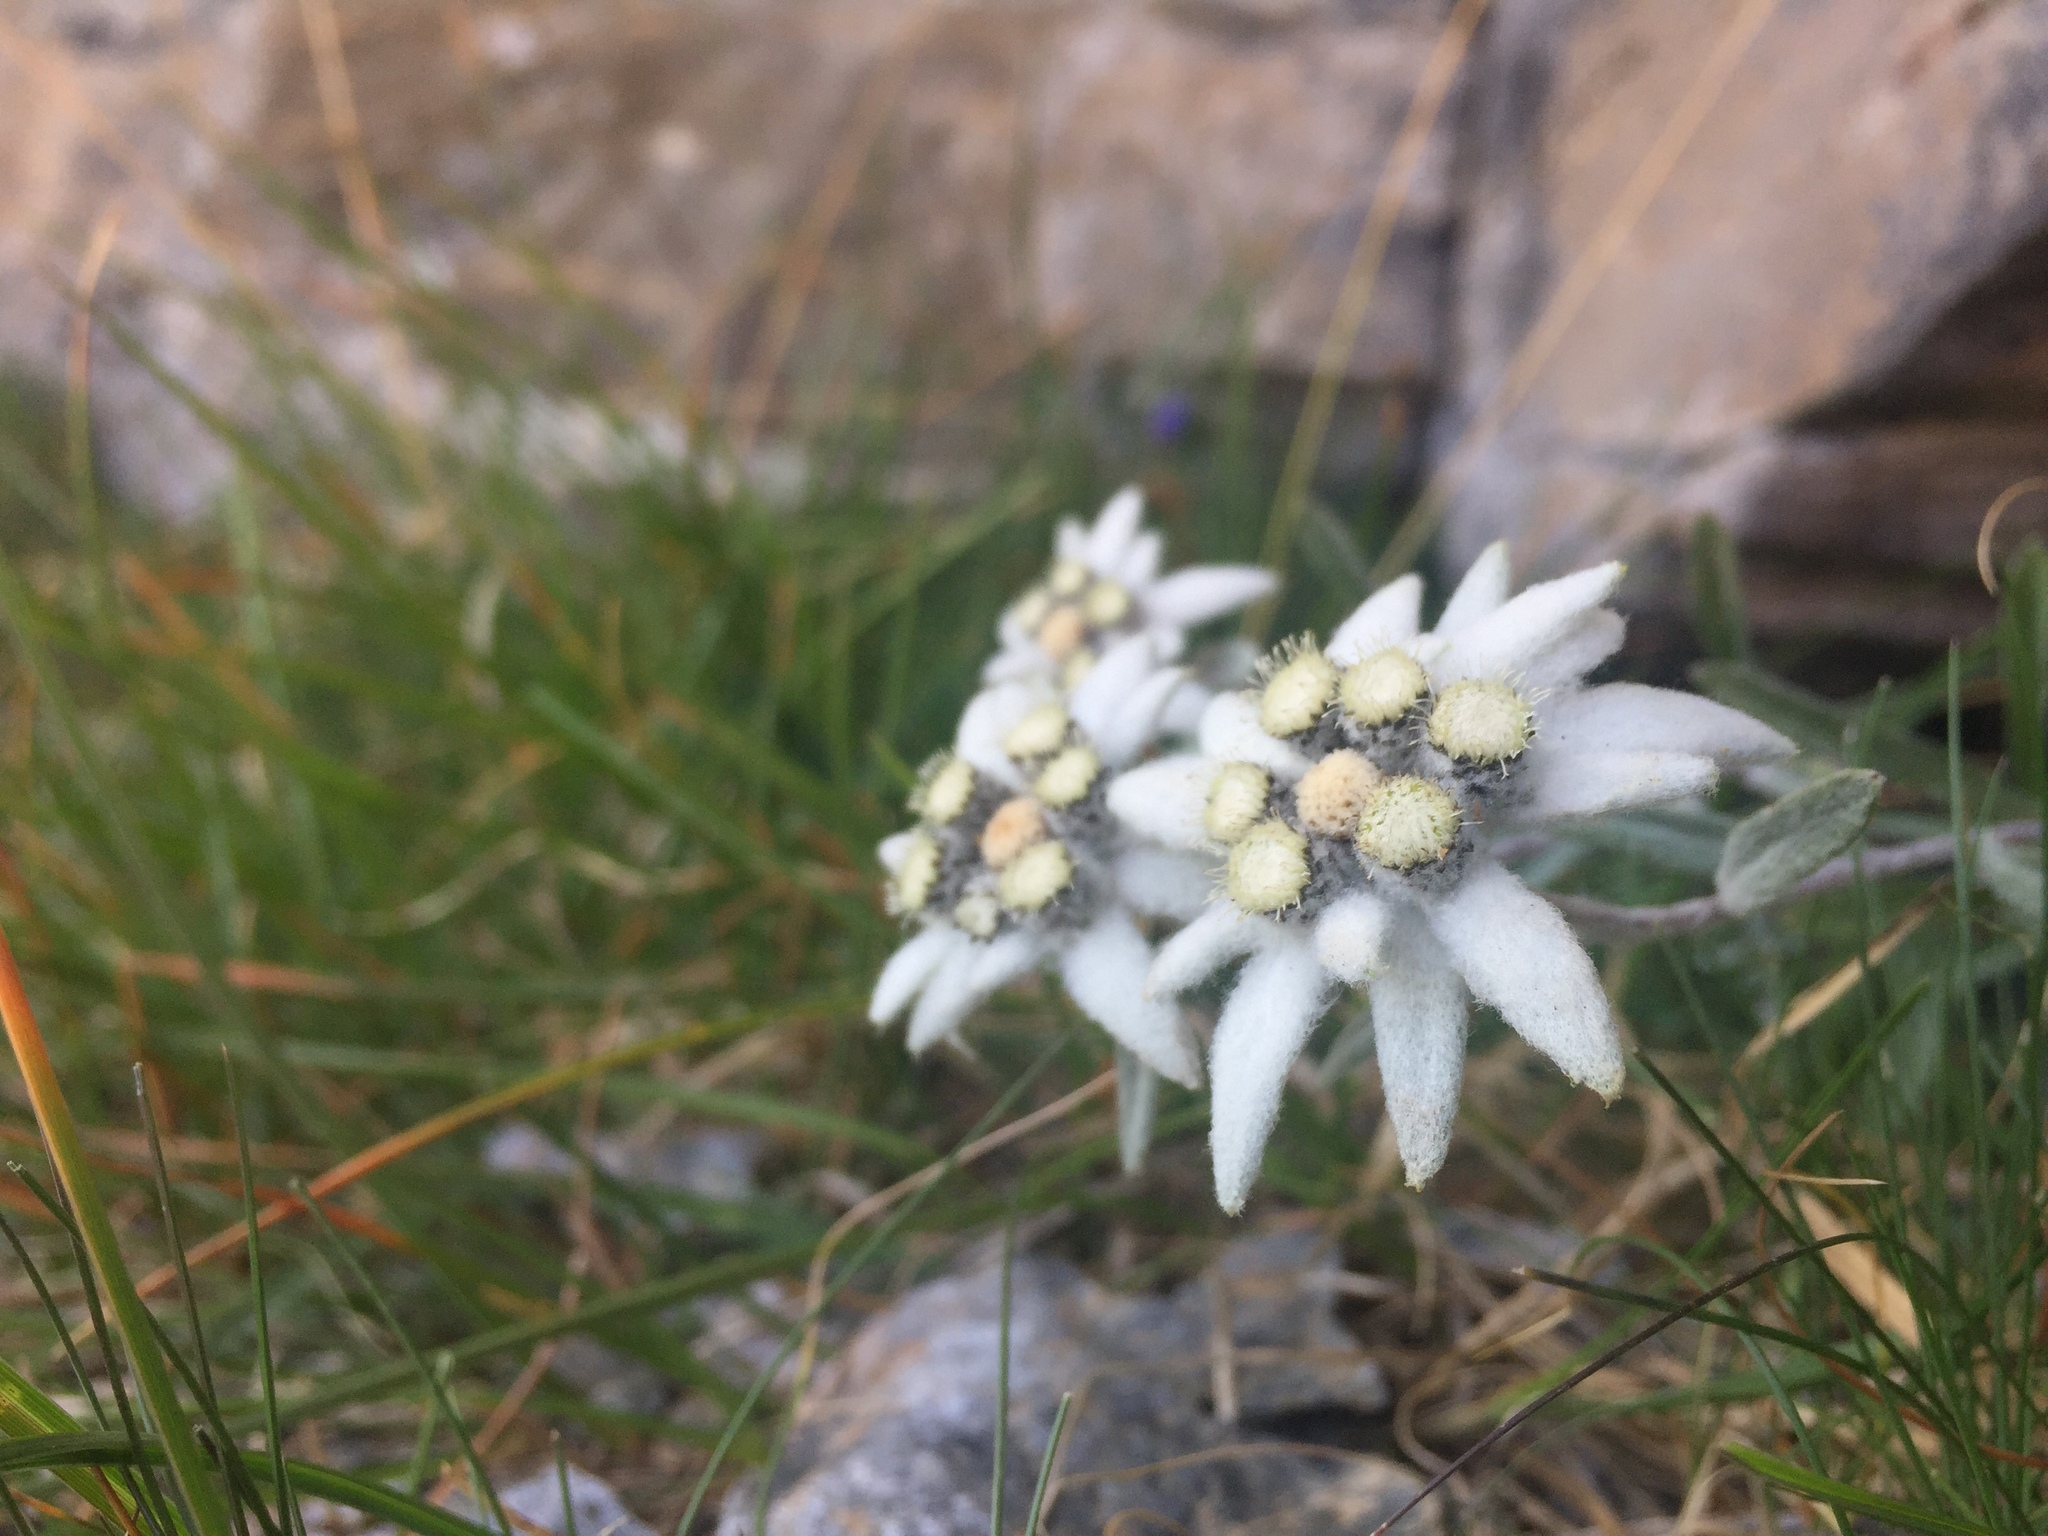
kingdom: Plantae
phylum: Tracheophyta
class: Magnoliopsida
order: Asterales
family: Asteraceae
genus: Leontopodium
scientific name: Leontopodium nivale
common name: Edelweiss
